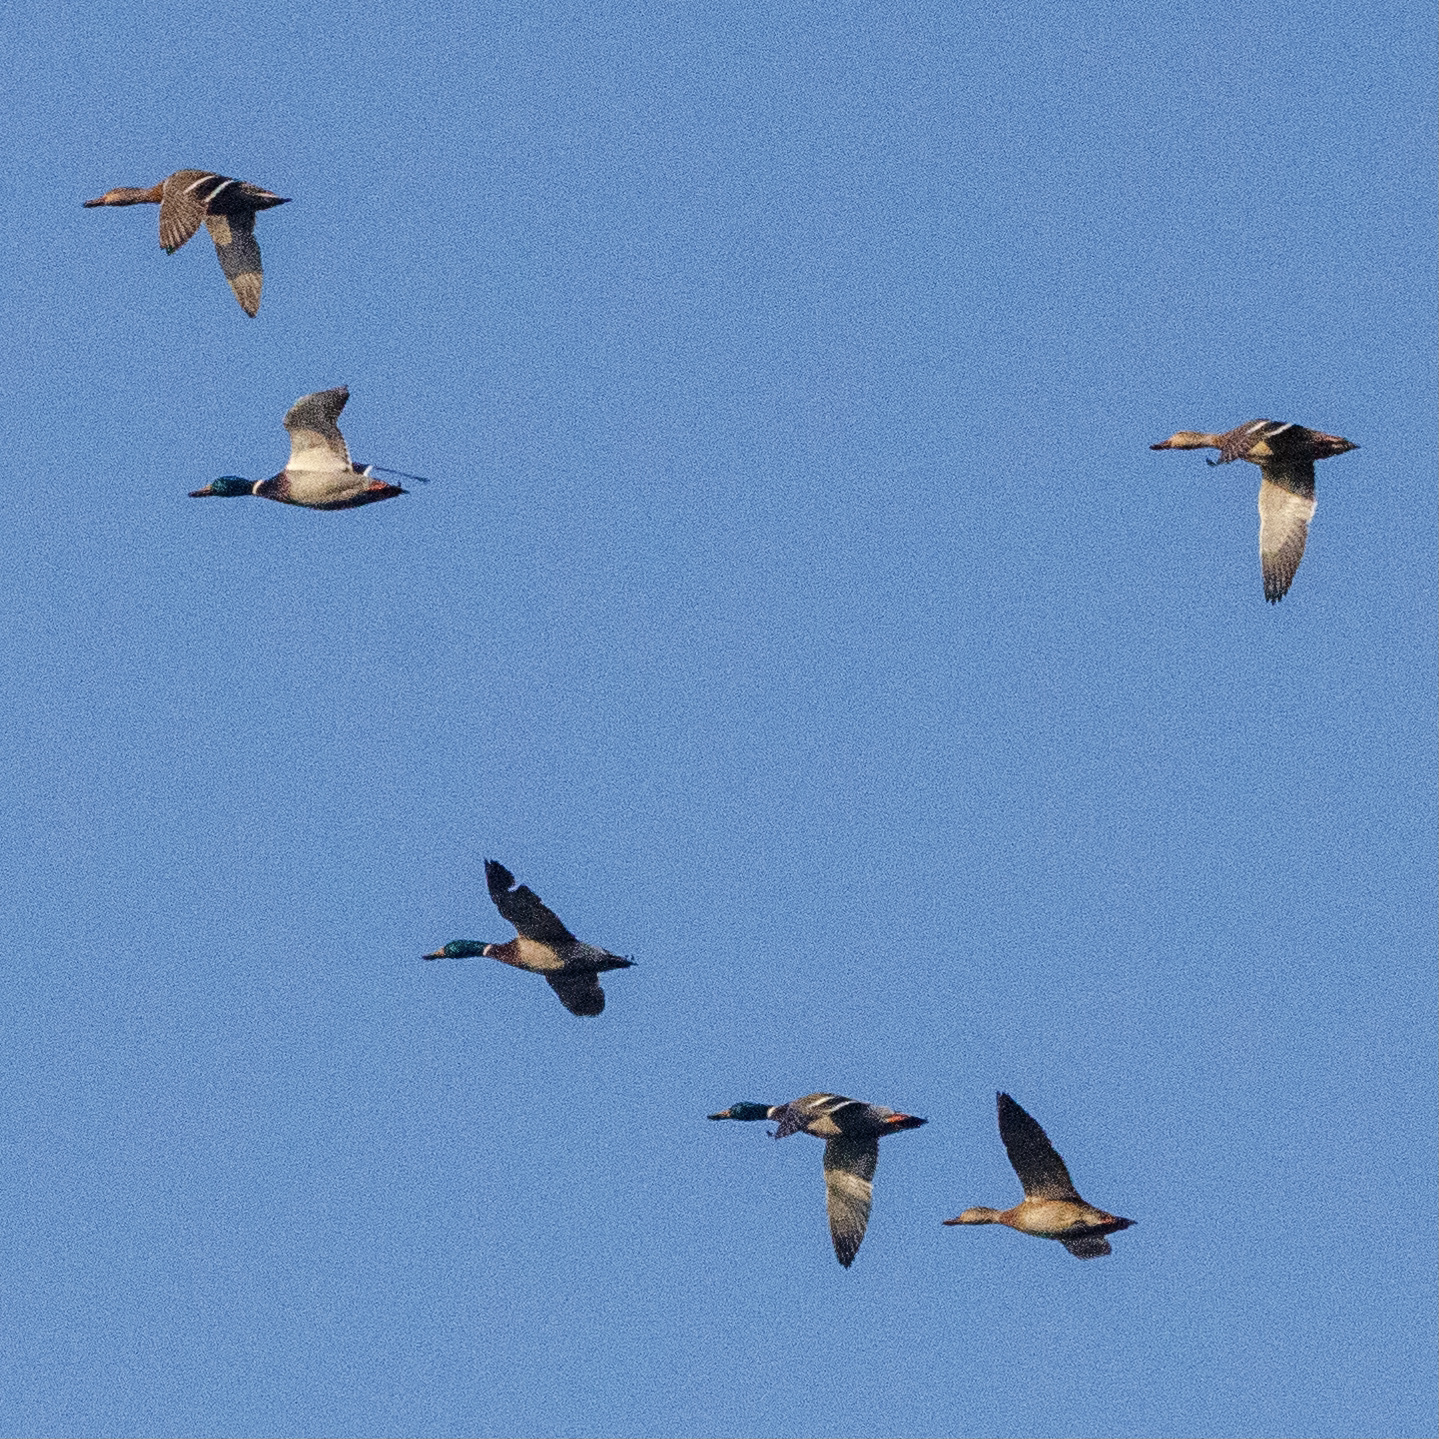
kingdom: Animalia
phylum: Chordata
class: Aves
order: Anseriformes
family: Anatidae
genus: Anas
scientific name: Anas platyrhynchos
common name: Mallard
